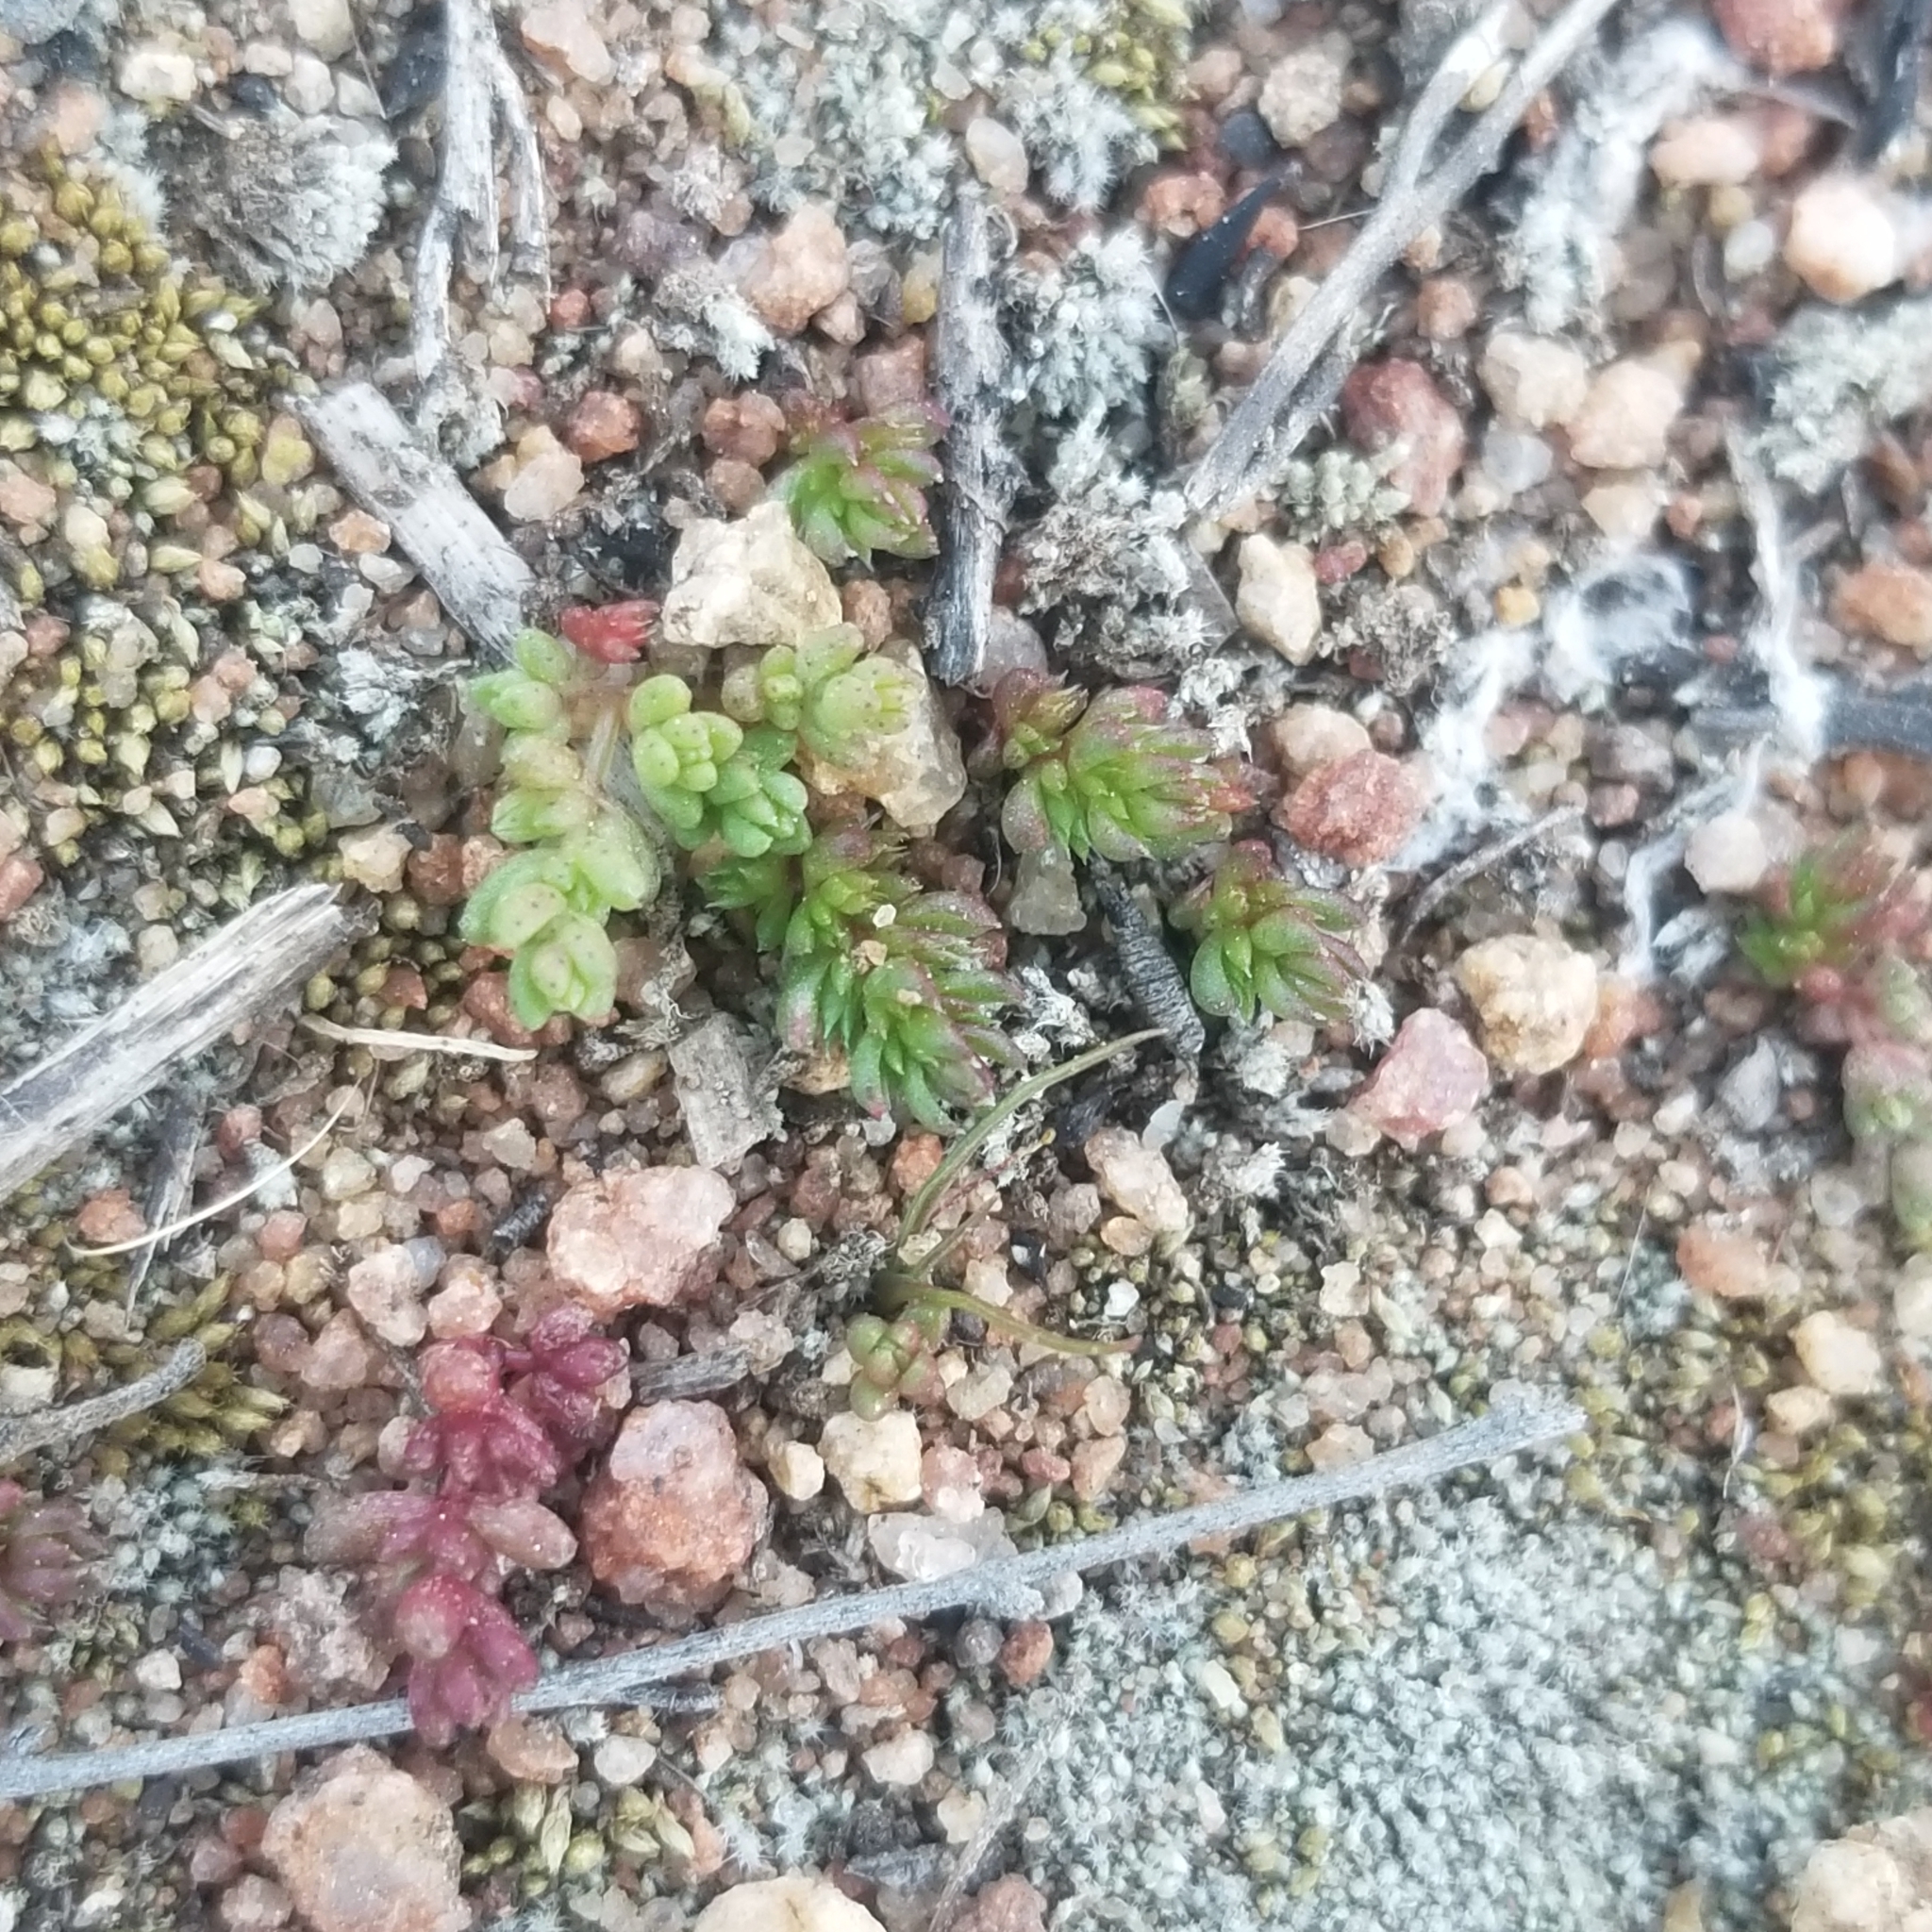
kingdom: Plantae
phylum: Tracheophyta
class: Magnoliopsida
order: Saxifragales
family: Crassulaceae
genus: Crassula
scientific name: Crassula connata
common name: Erect pygmyweed
